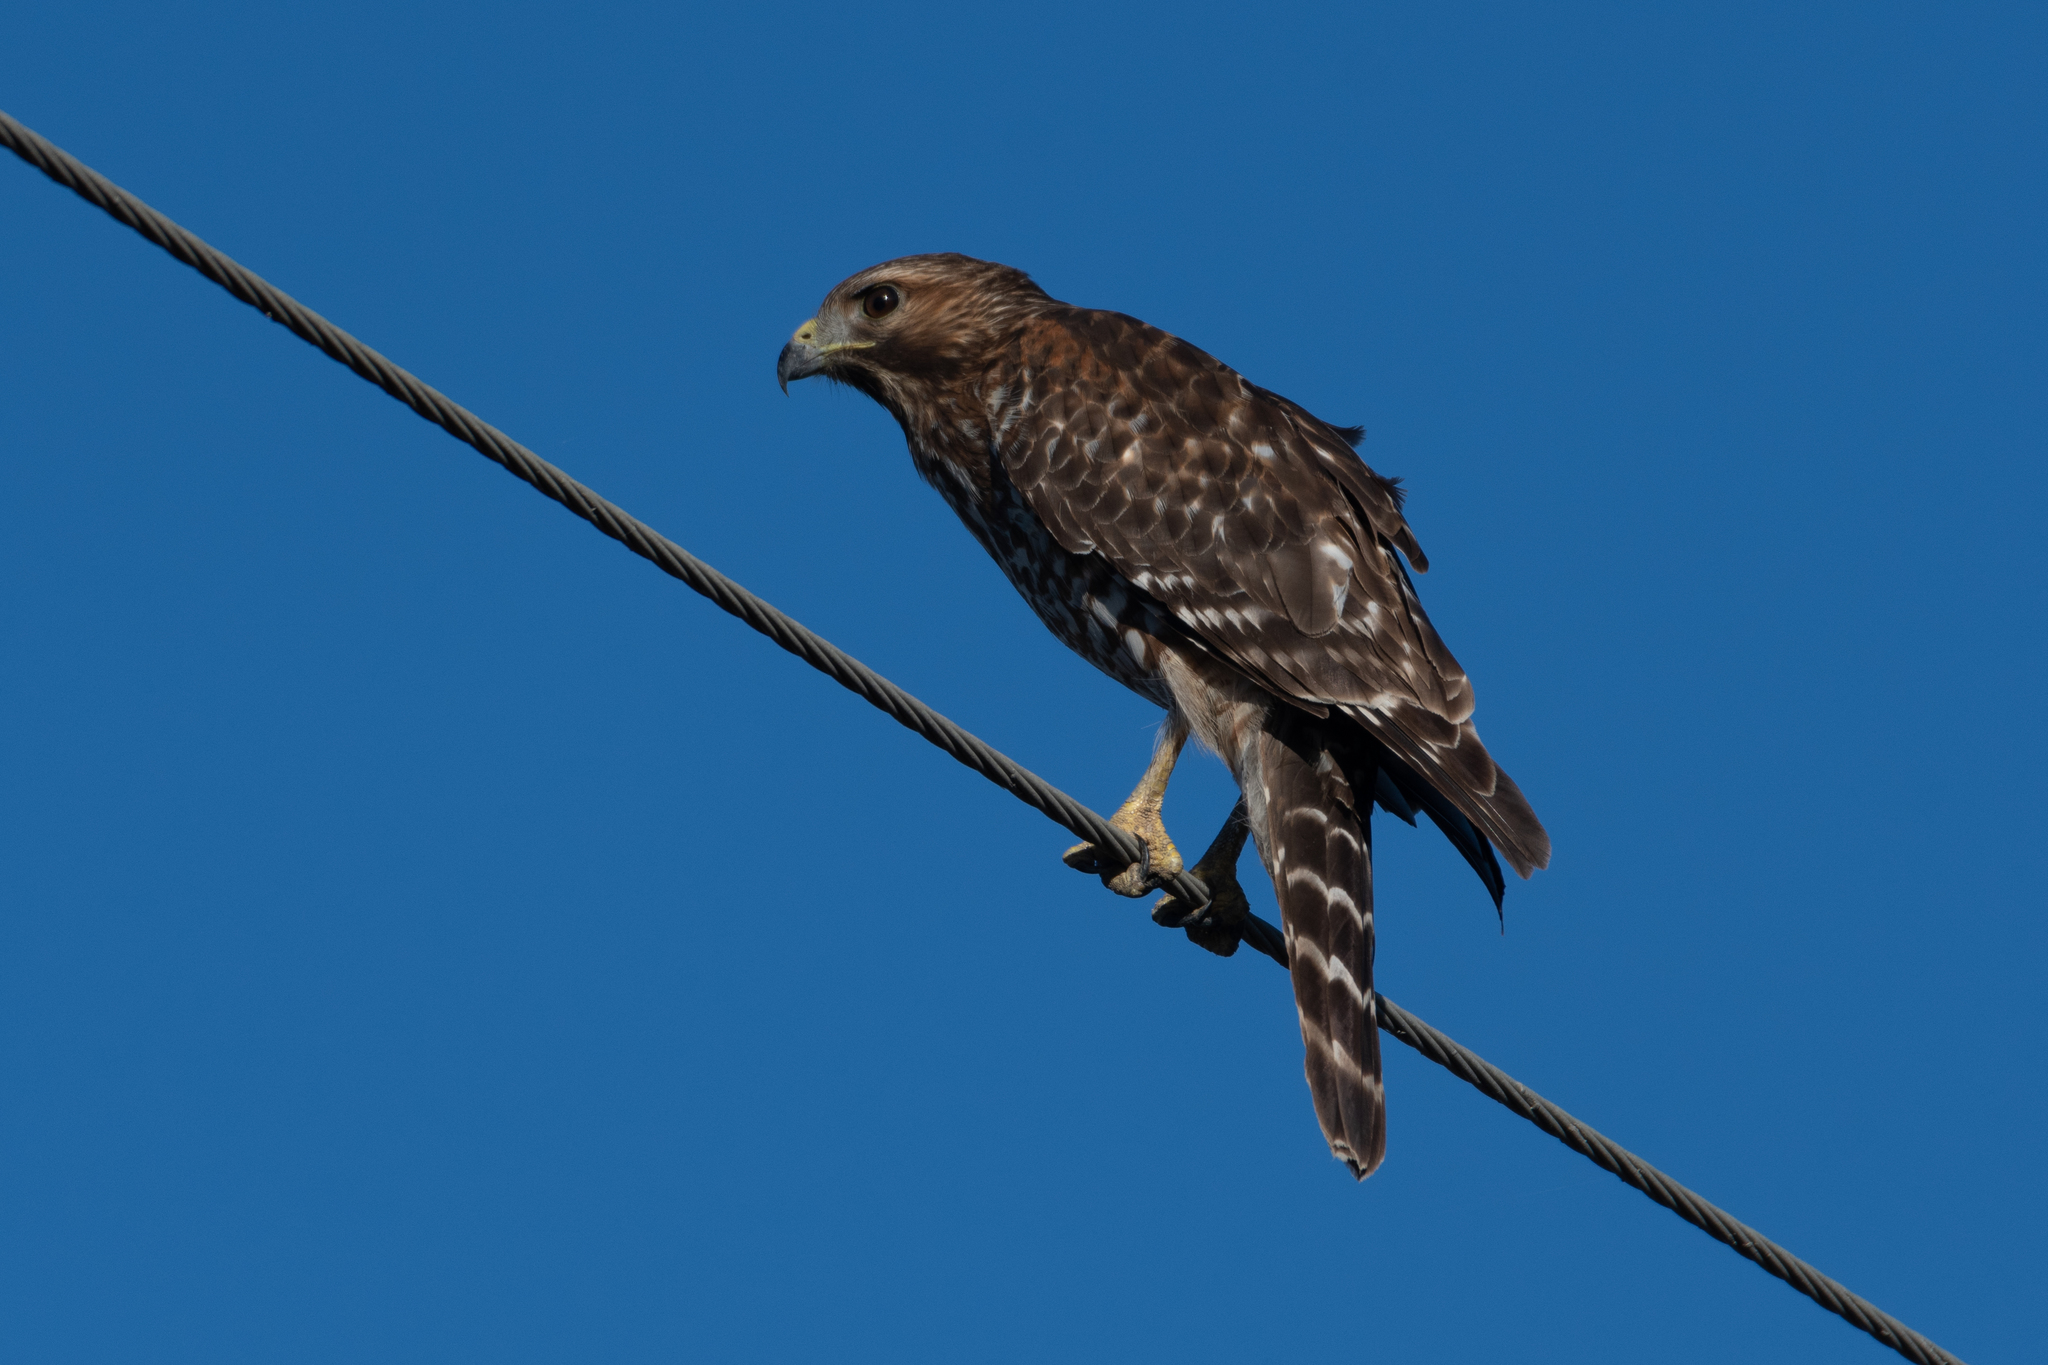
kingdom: Animalia
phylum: Chordata
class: Aves
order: Accipitriformes
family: Accipitridae
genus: Buteo
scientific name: Buteo lineatus
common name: Red-shouldered hawk
